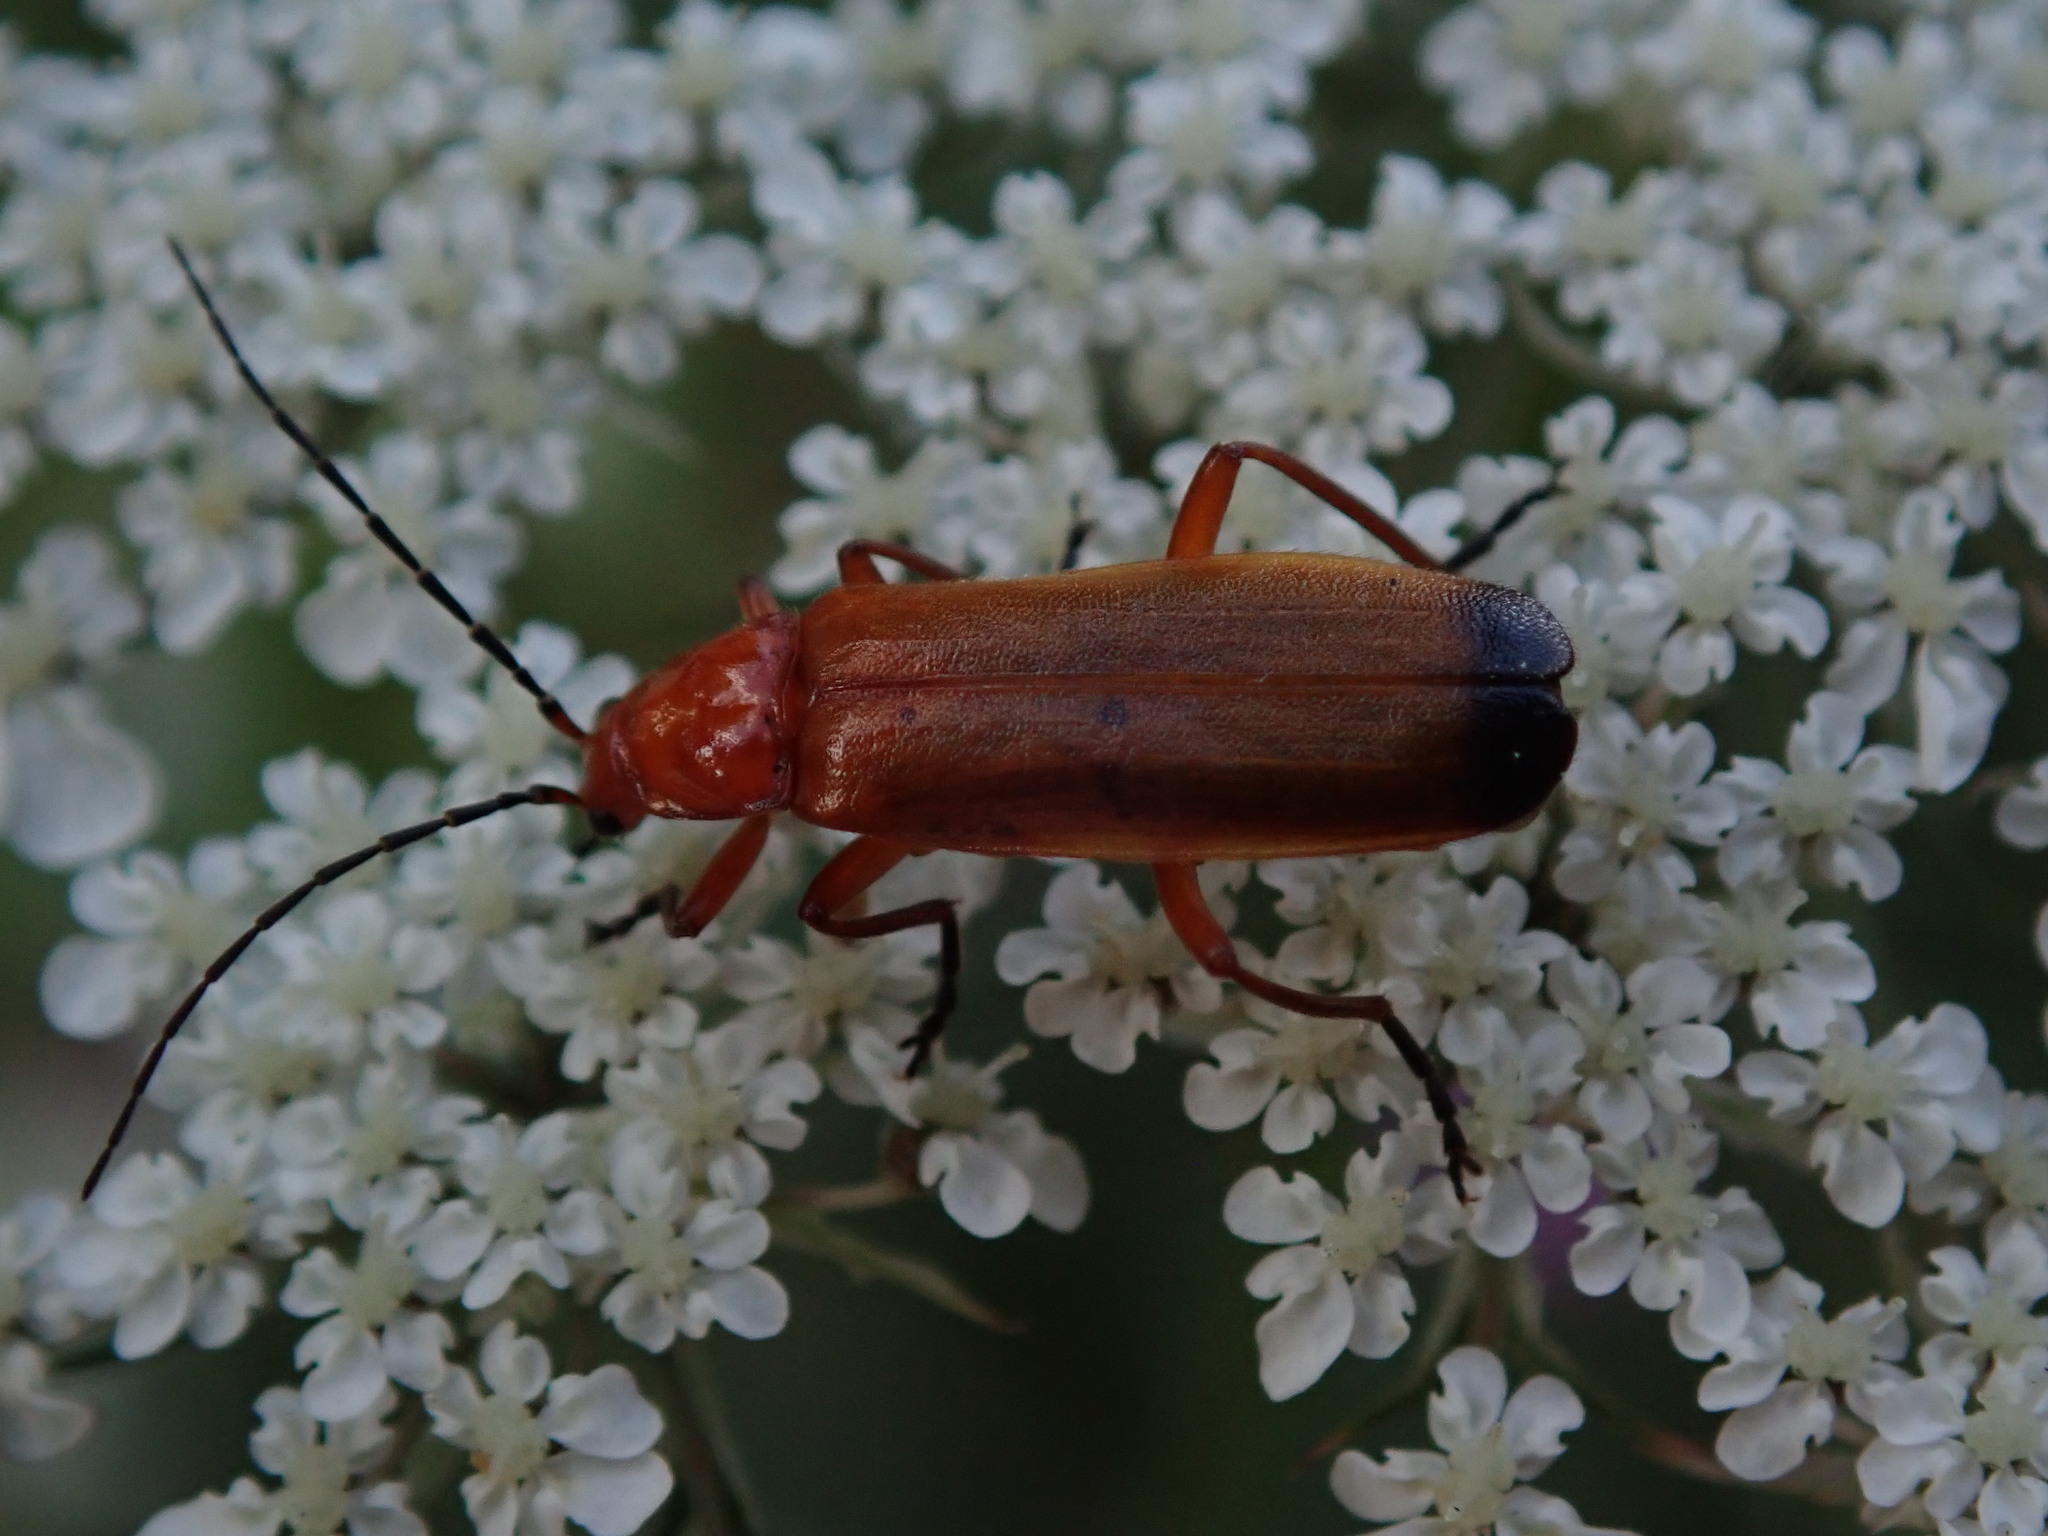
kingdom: Animalia
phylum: Arthropoda
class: Insecta
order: Coleoptera
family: Cantharidae
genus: Rhagonycha
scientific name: Rhagonycha fulva
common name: Common red soldier beetle
